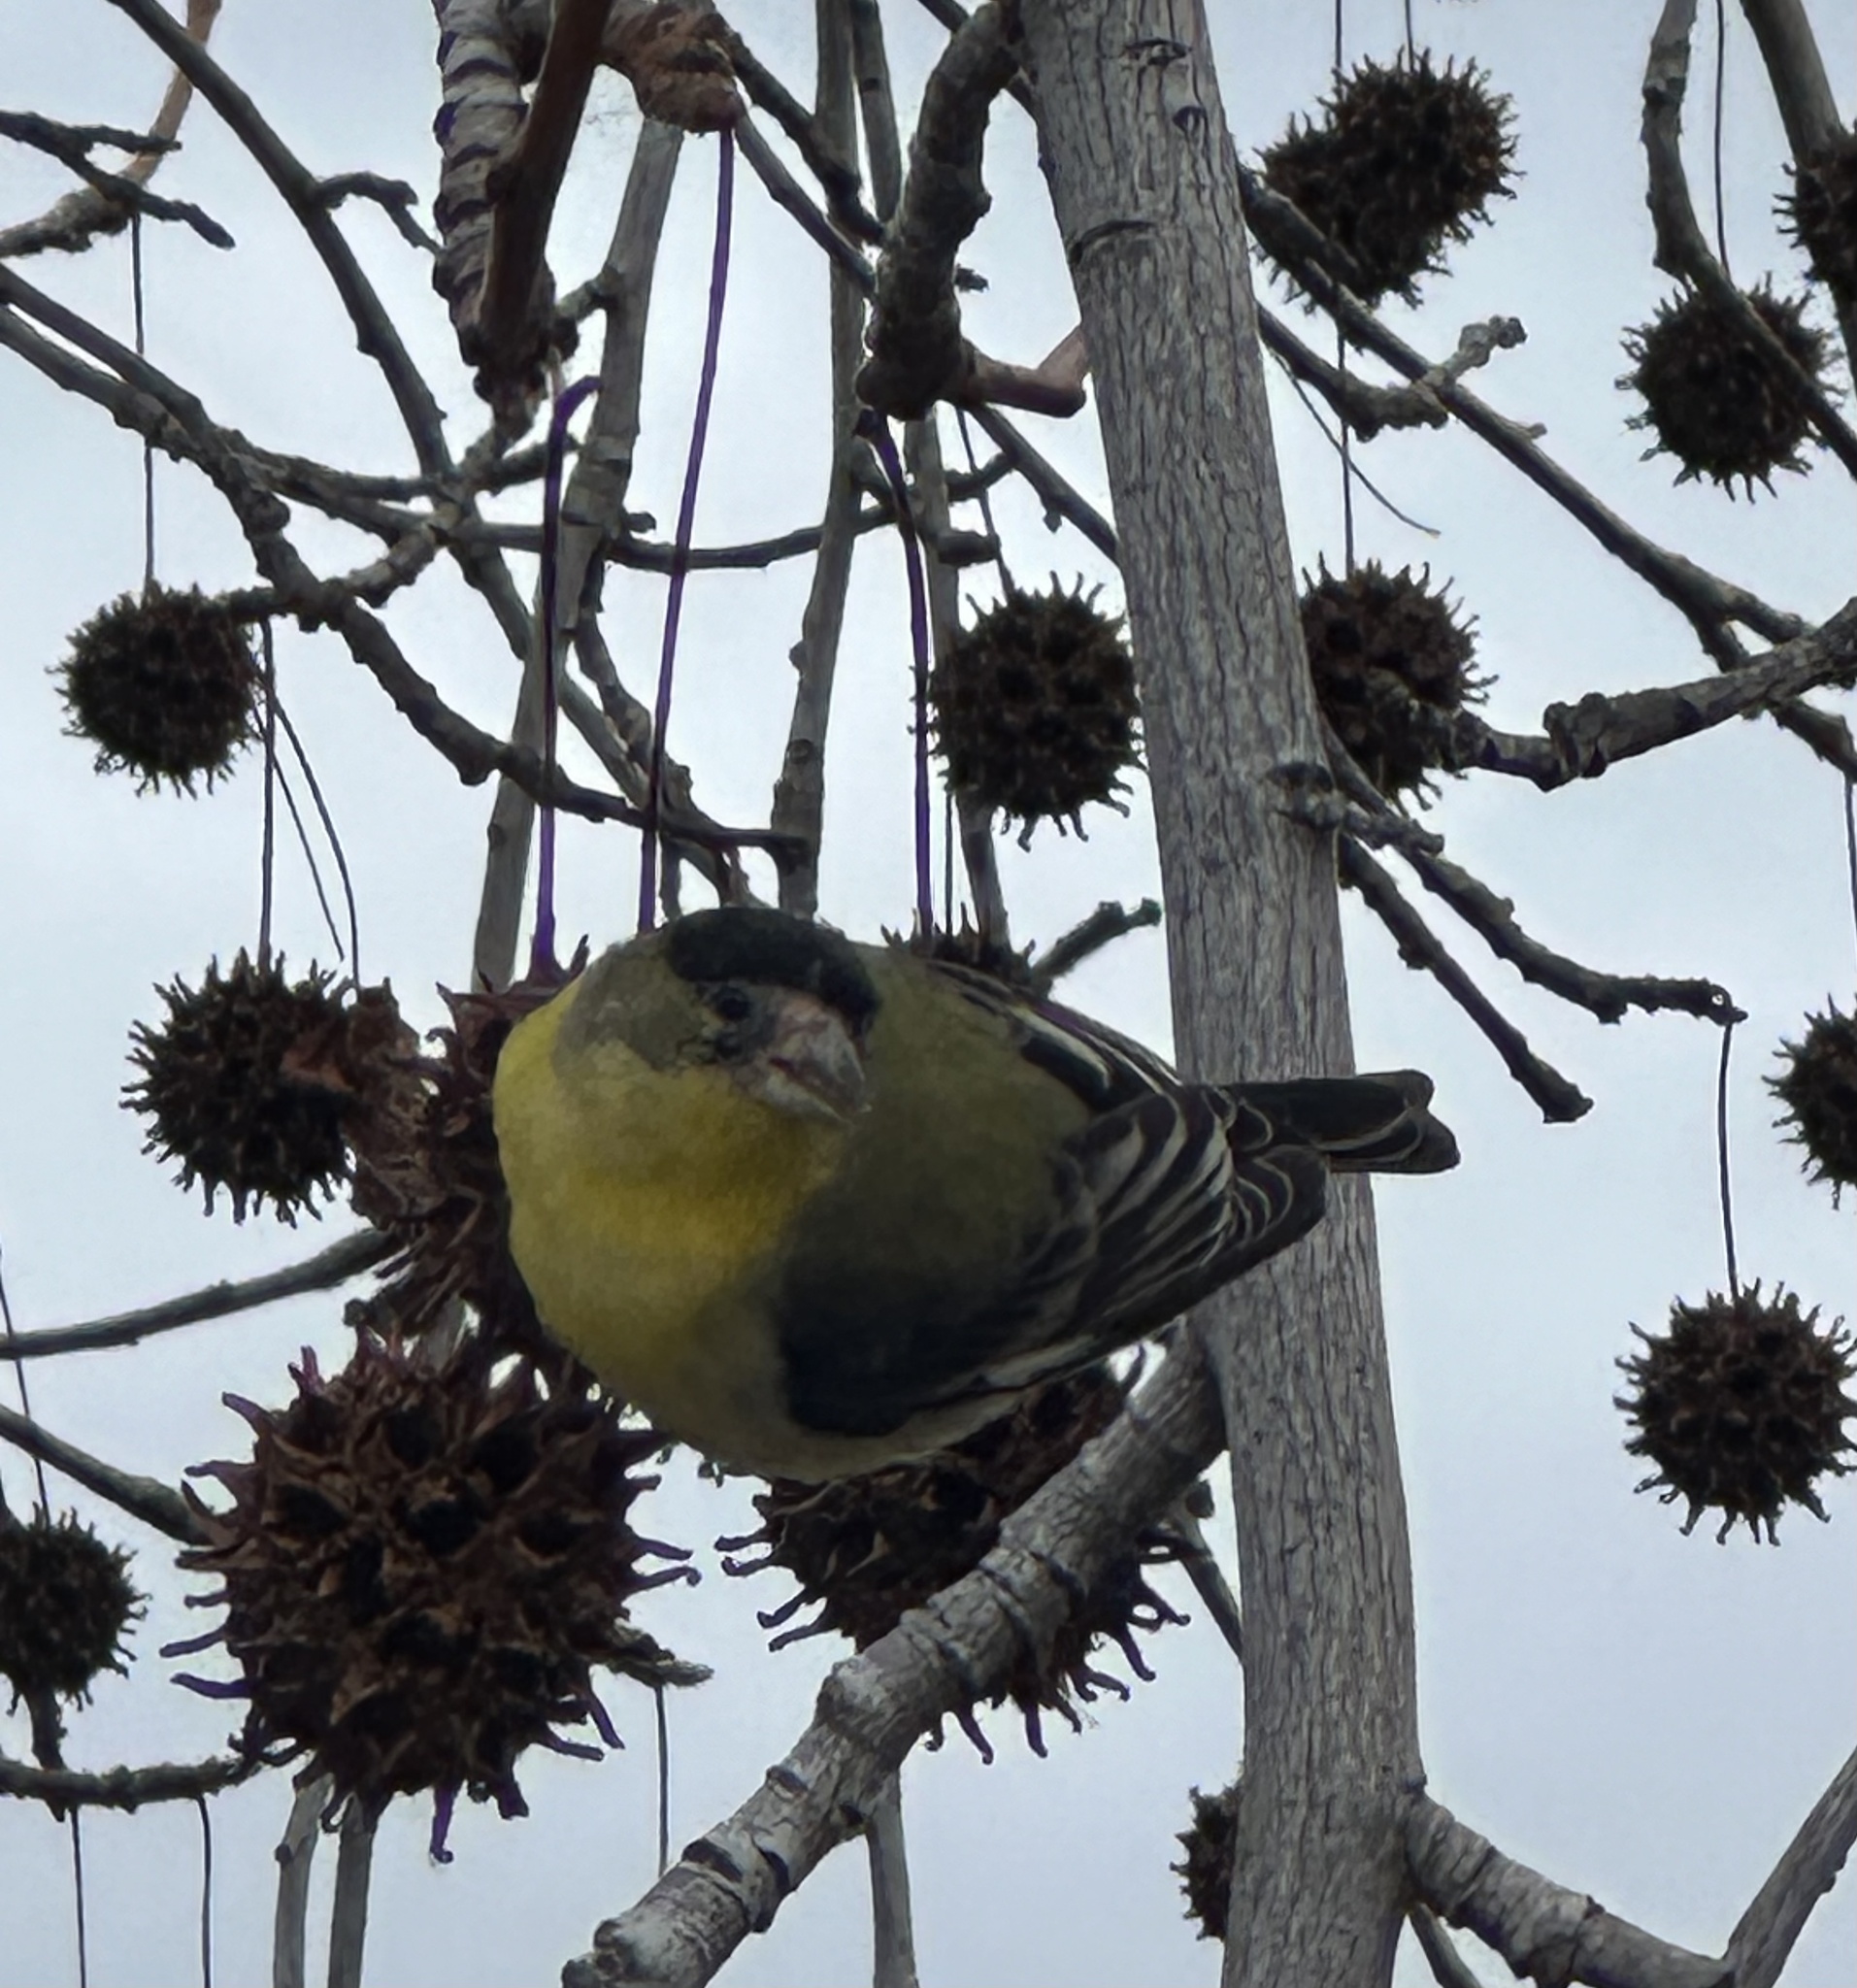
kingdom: Animalia
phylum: Chordata
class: Aves
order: Passeriformes
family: Fringillidae
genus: Spinus
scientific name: Spinus psaltria
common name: Lesser goldfinch
